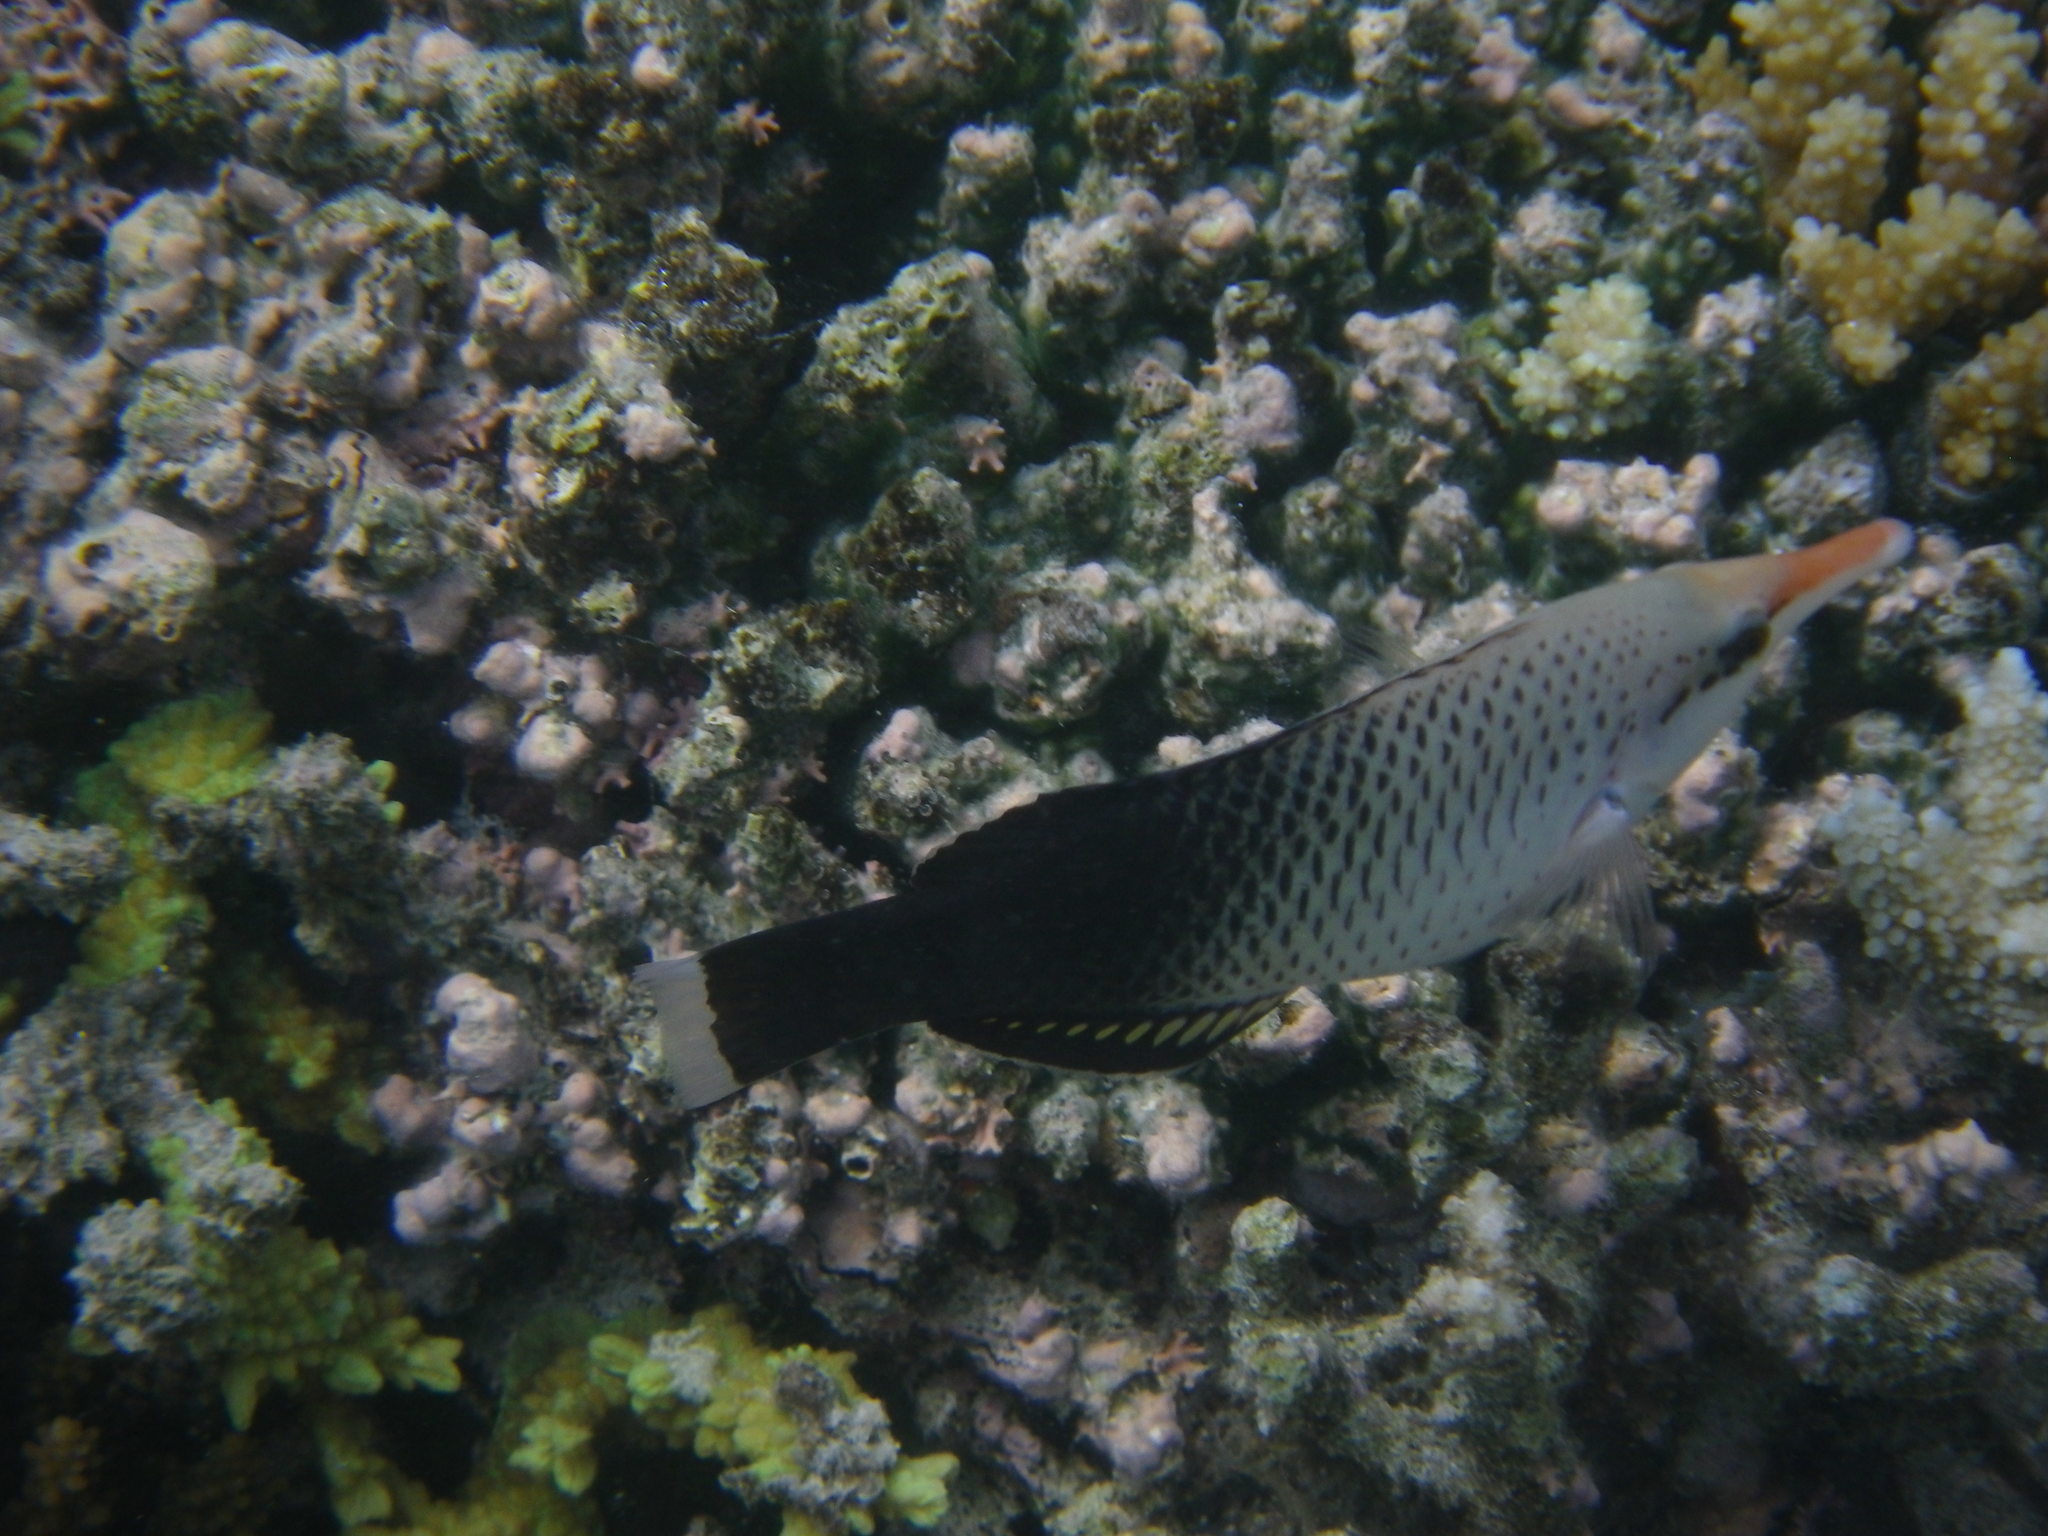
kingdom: Animalia
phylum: Chordata
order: Perciformes
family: Labridae
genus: Gomphosus
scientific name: Gomphosus varius
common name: Bird wrasse
